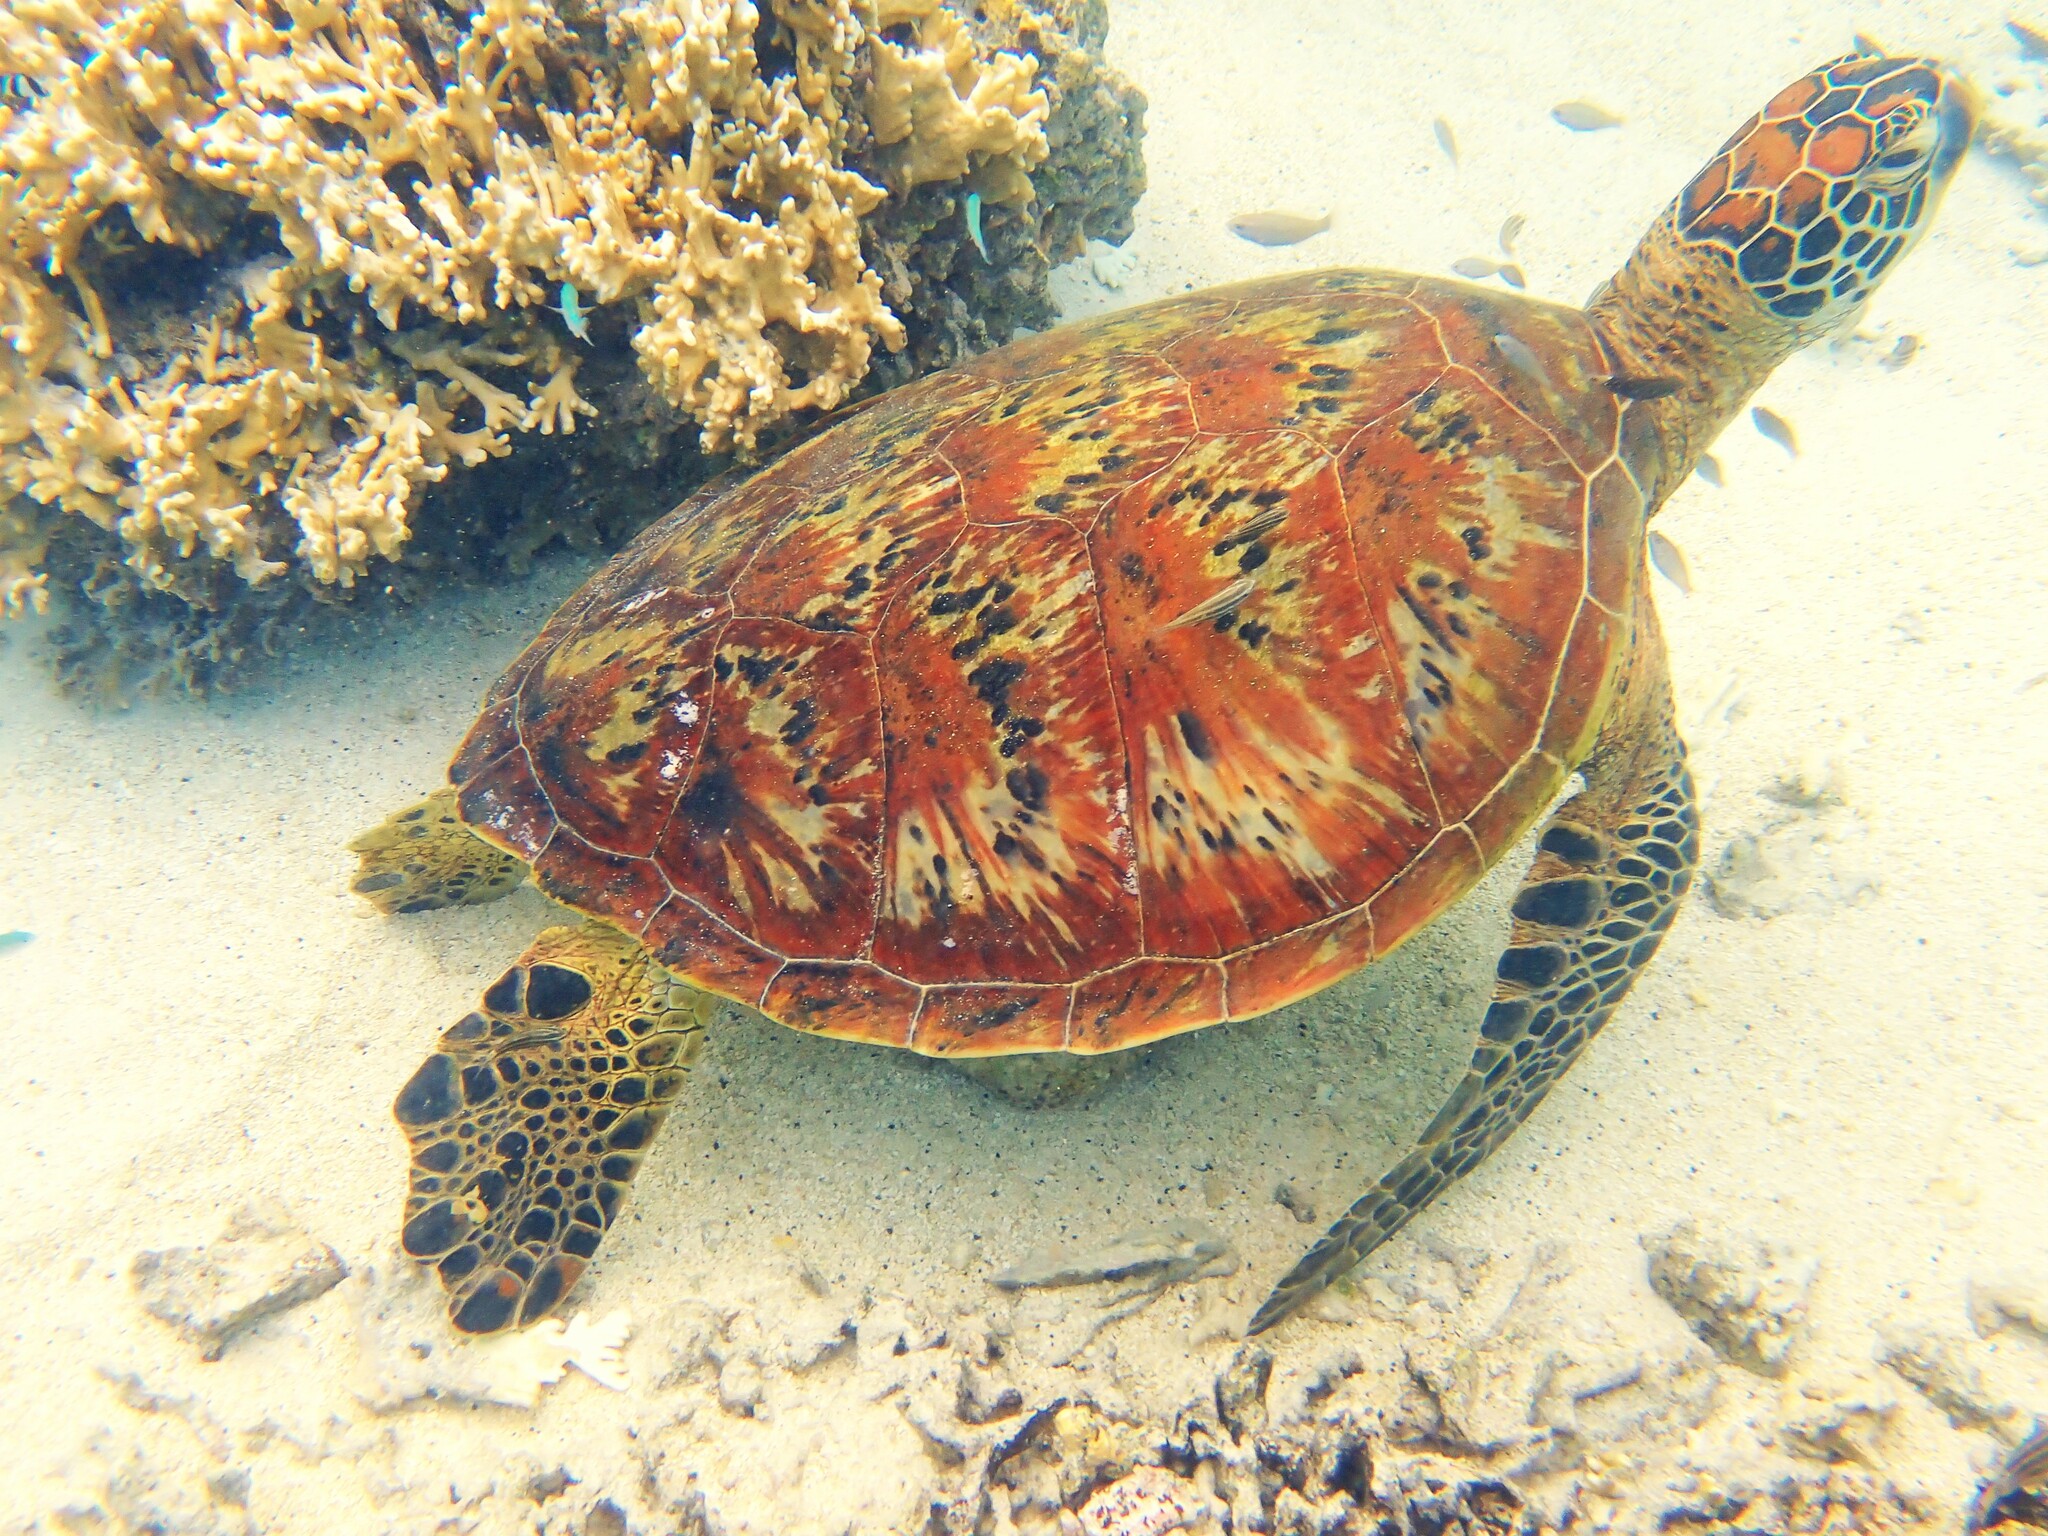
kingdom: Animalia
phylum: Chordata
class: Testudines
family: Cheloniidae
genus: Chelonia
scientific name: Chelonia mydas
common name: Green turtle
